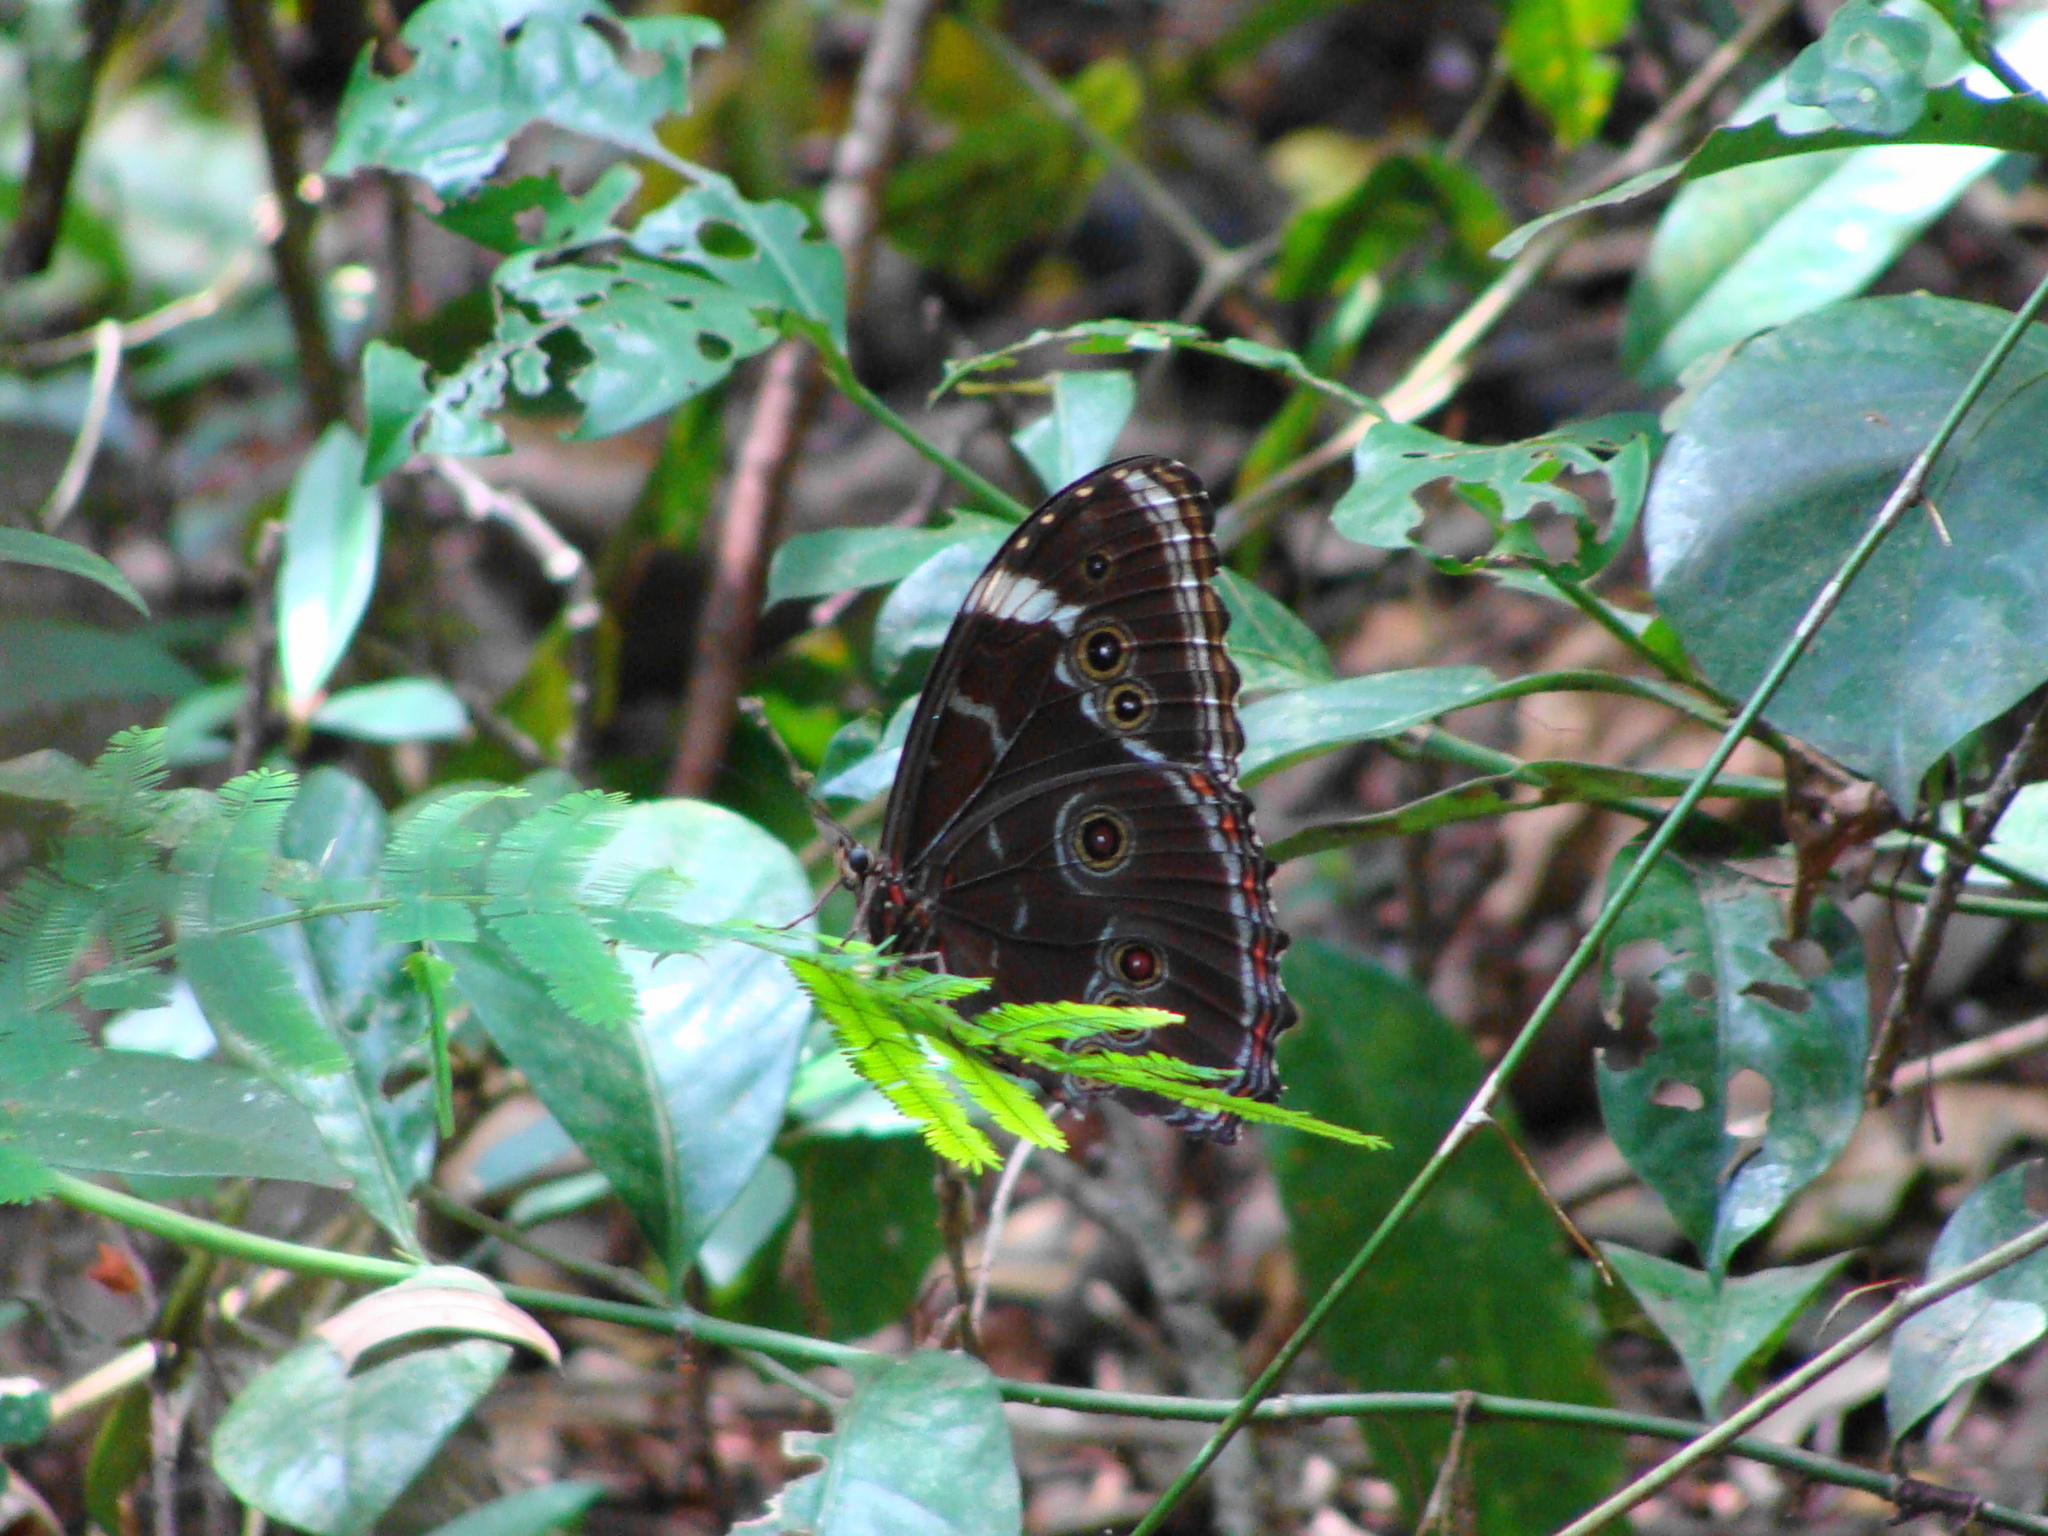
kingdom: Animalia
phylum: Arthropoda
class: Insecta
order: Lepidoptera
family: Nymphalidae
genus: Morpho
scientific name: Morpho helenor
